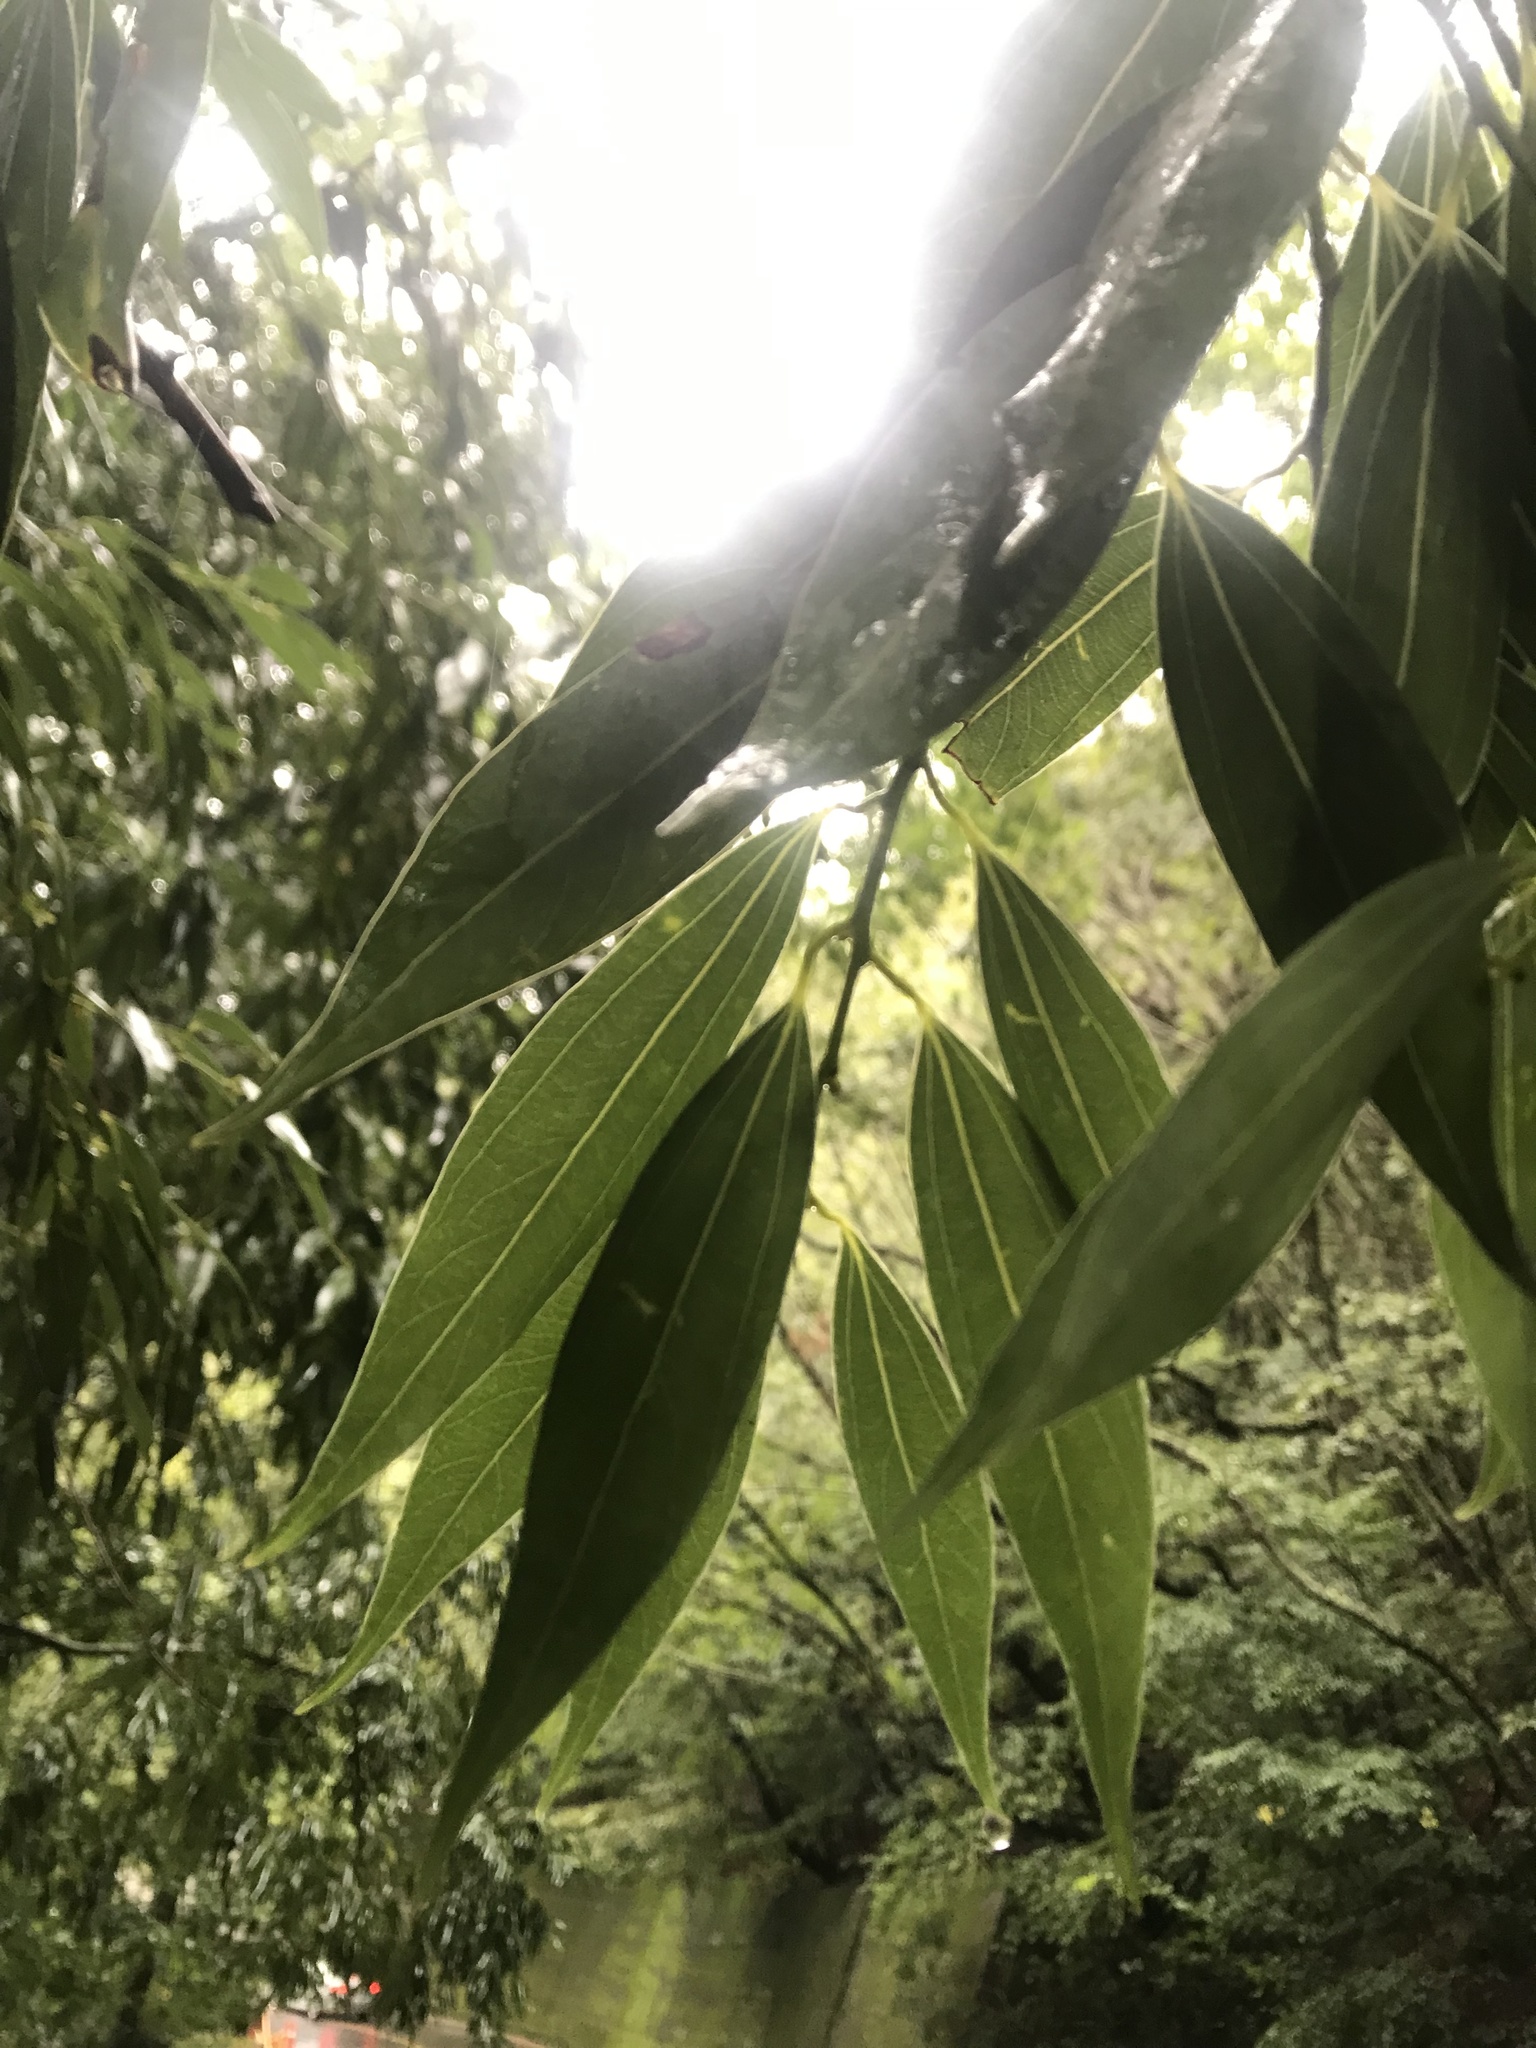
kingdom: Plantae
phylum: Tracheophyta
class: Magnoliopsida
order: Laurales
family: Lauraceae
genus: Cinnamomum
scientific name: Cinnamomum osmophloeum
